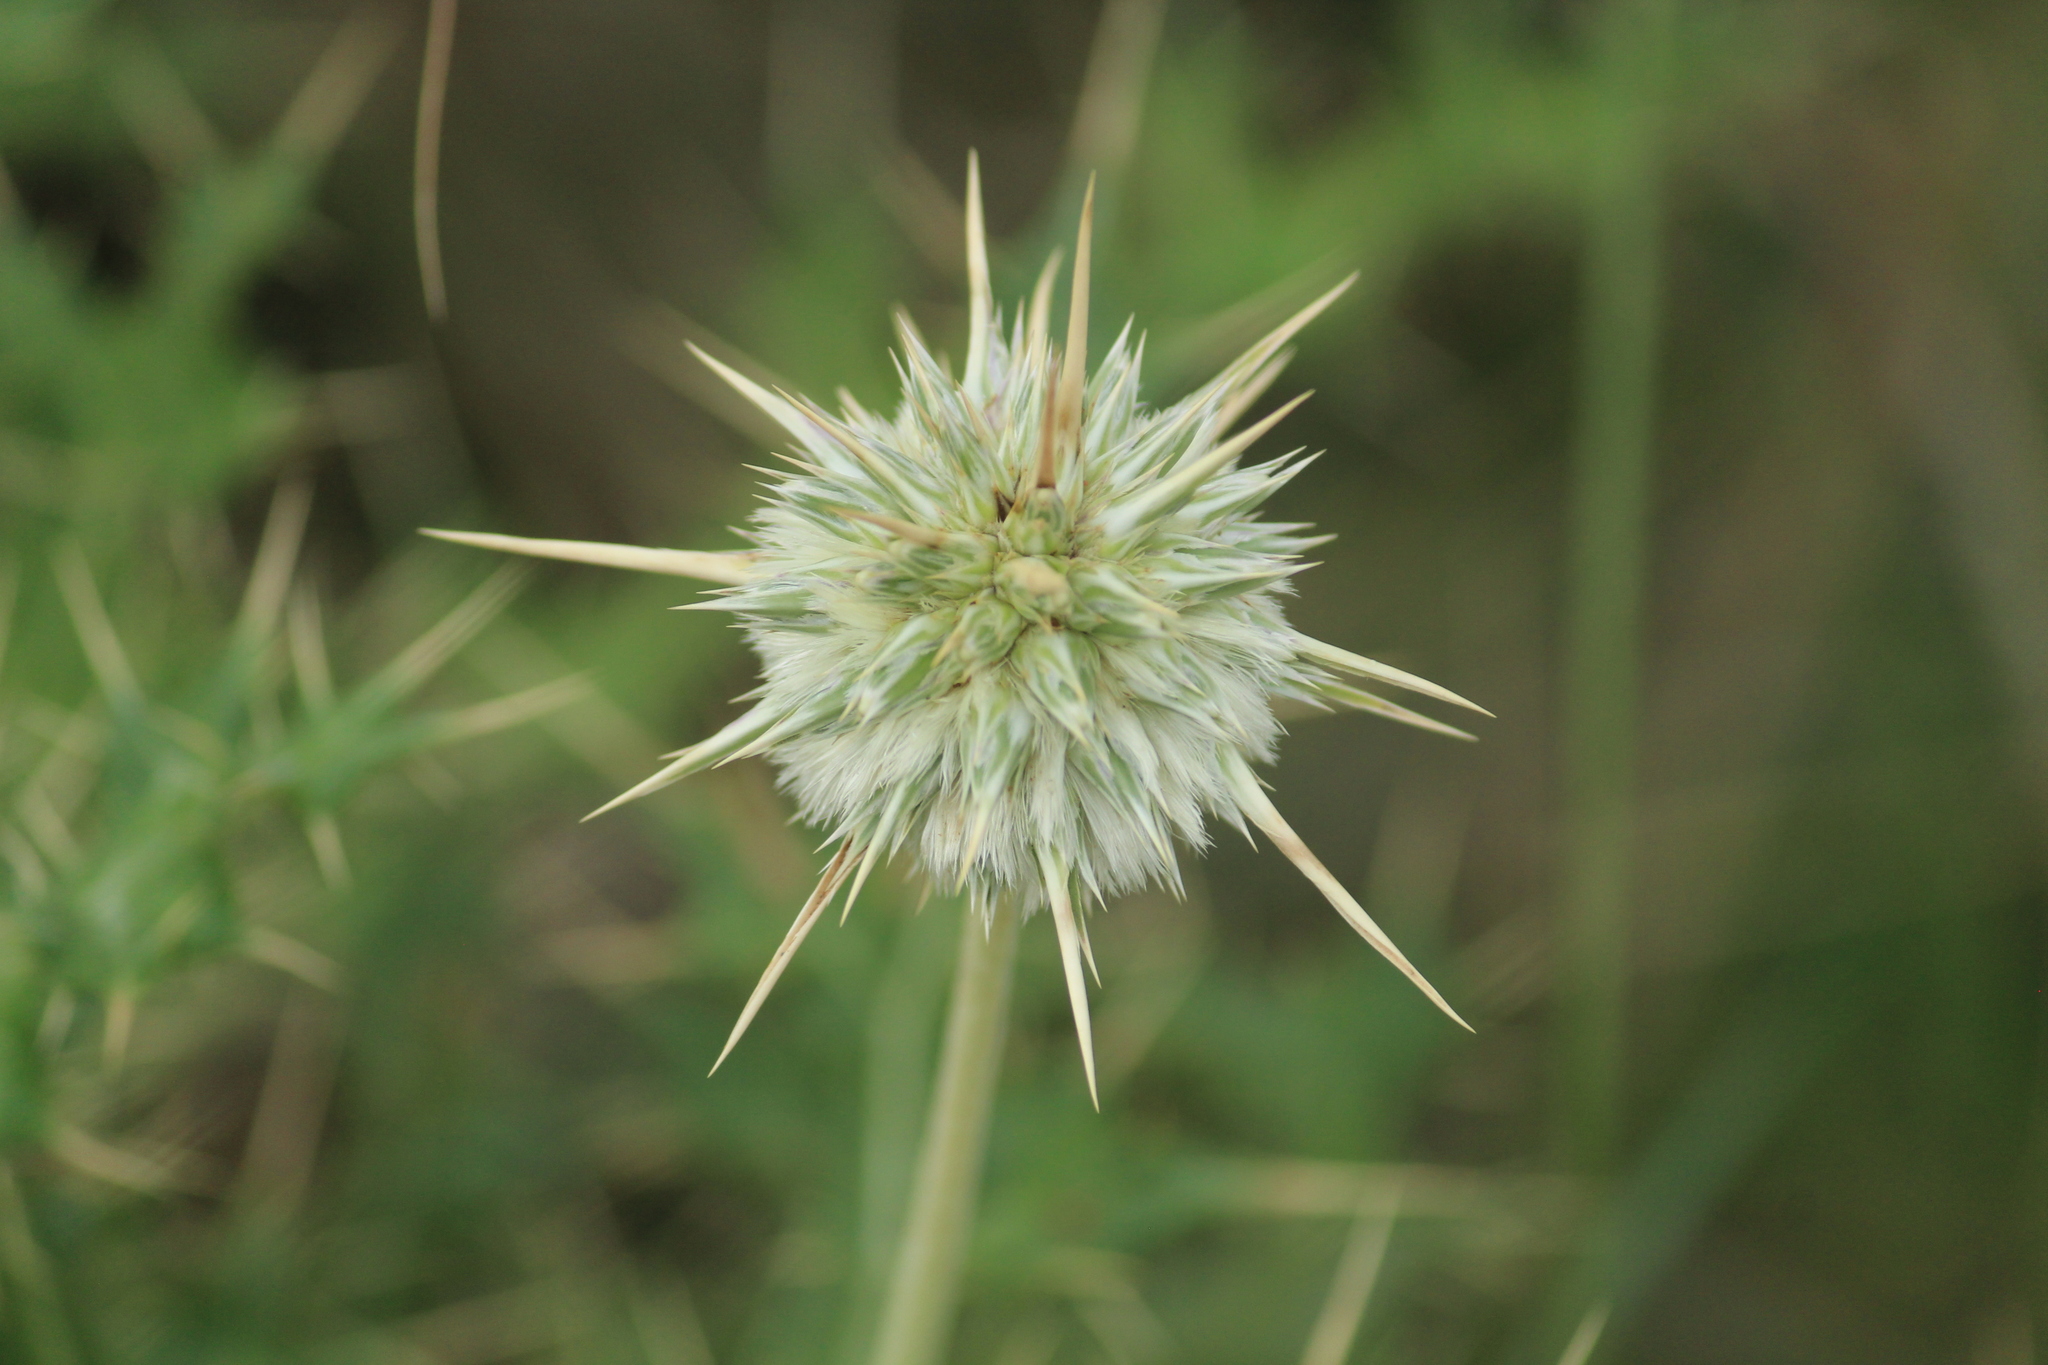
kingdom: Plantae
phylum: Tracheophyta
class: Magnoliopsida
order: Asterales
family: Asteraceae
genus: Echinops
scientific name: Echinops echinatus
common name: Indian globe thistle
